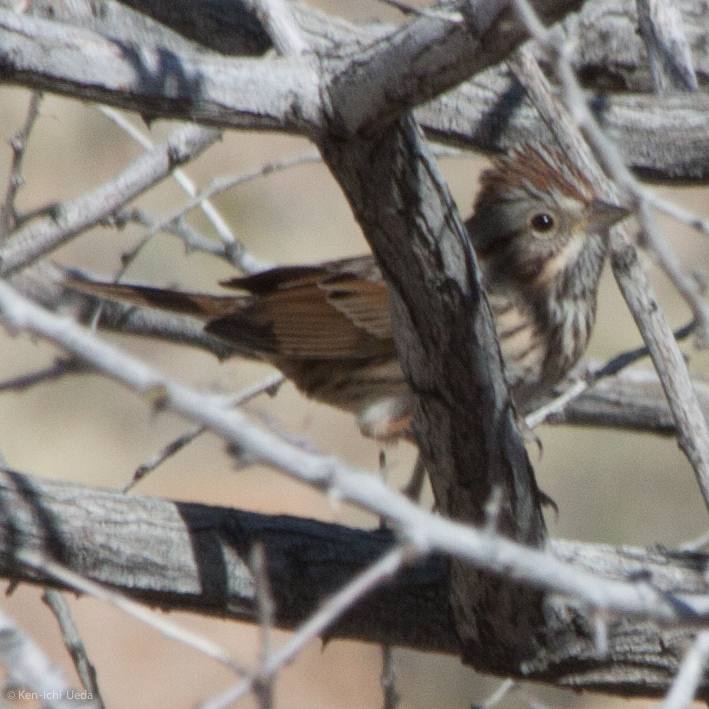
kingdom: Animalia
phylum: Chordata
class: Aves
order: Passeriformes
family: Passerellidae
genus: Melospiza
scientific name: Melospiza lincolnii
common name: Lincoln's sparrow
